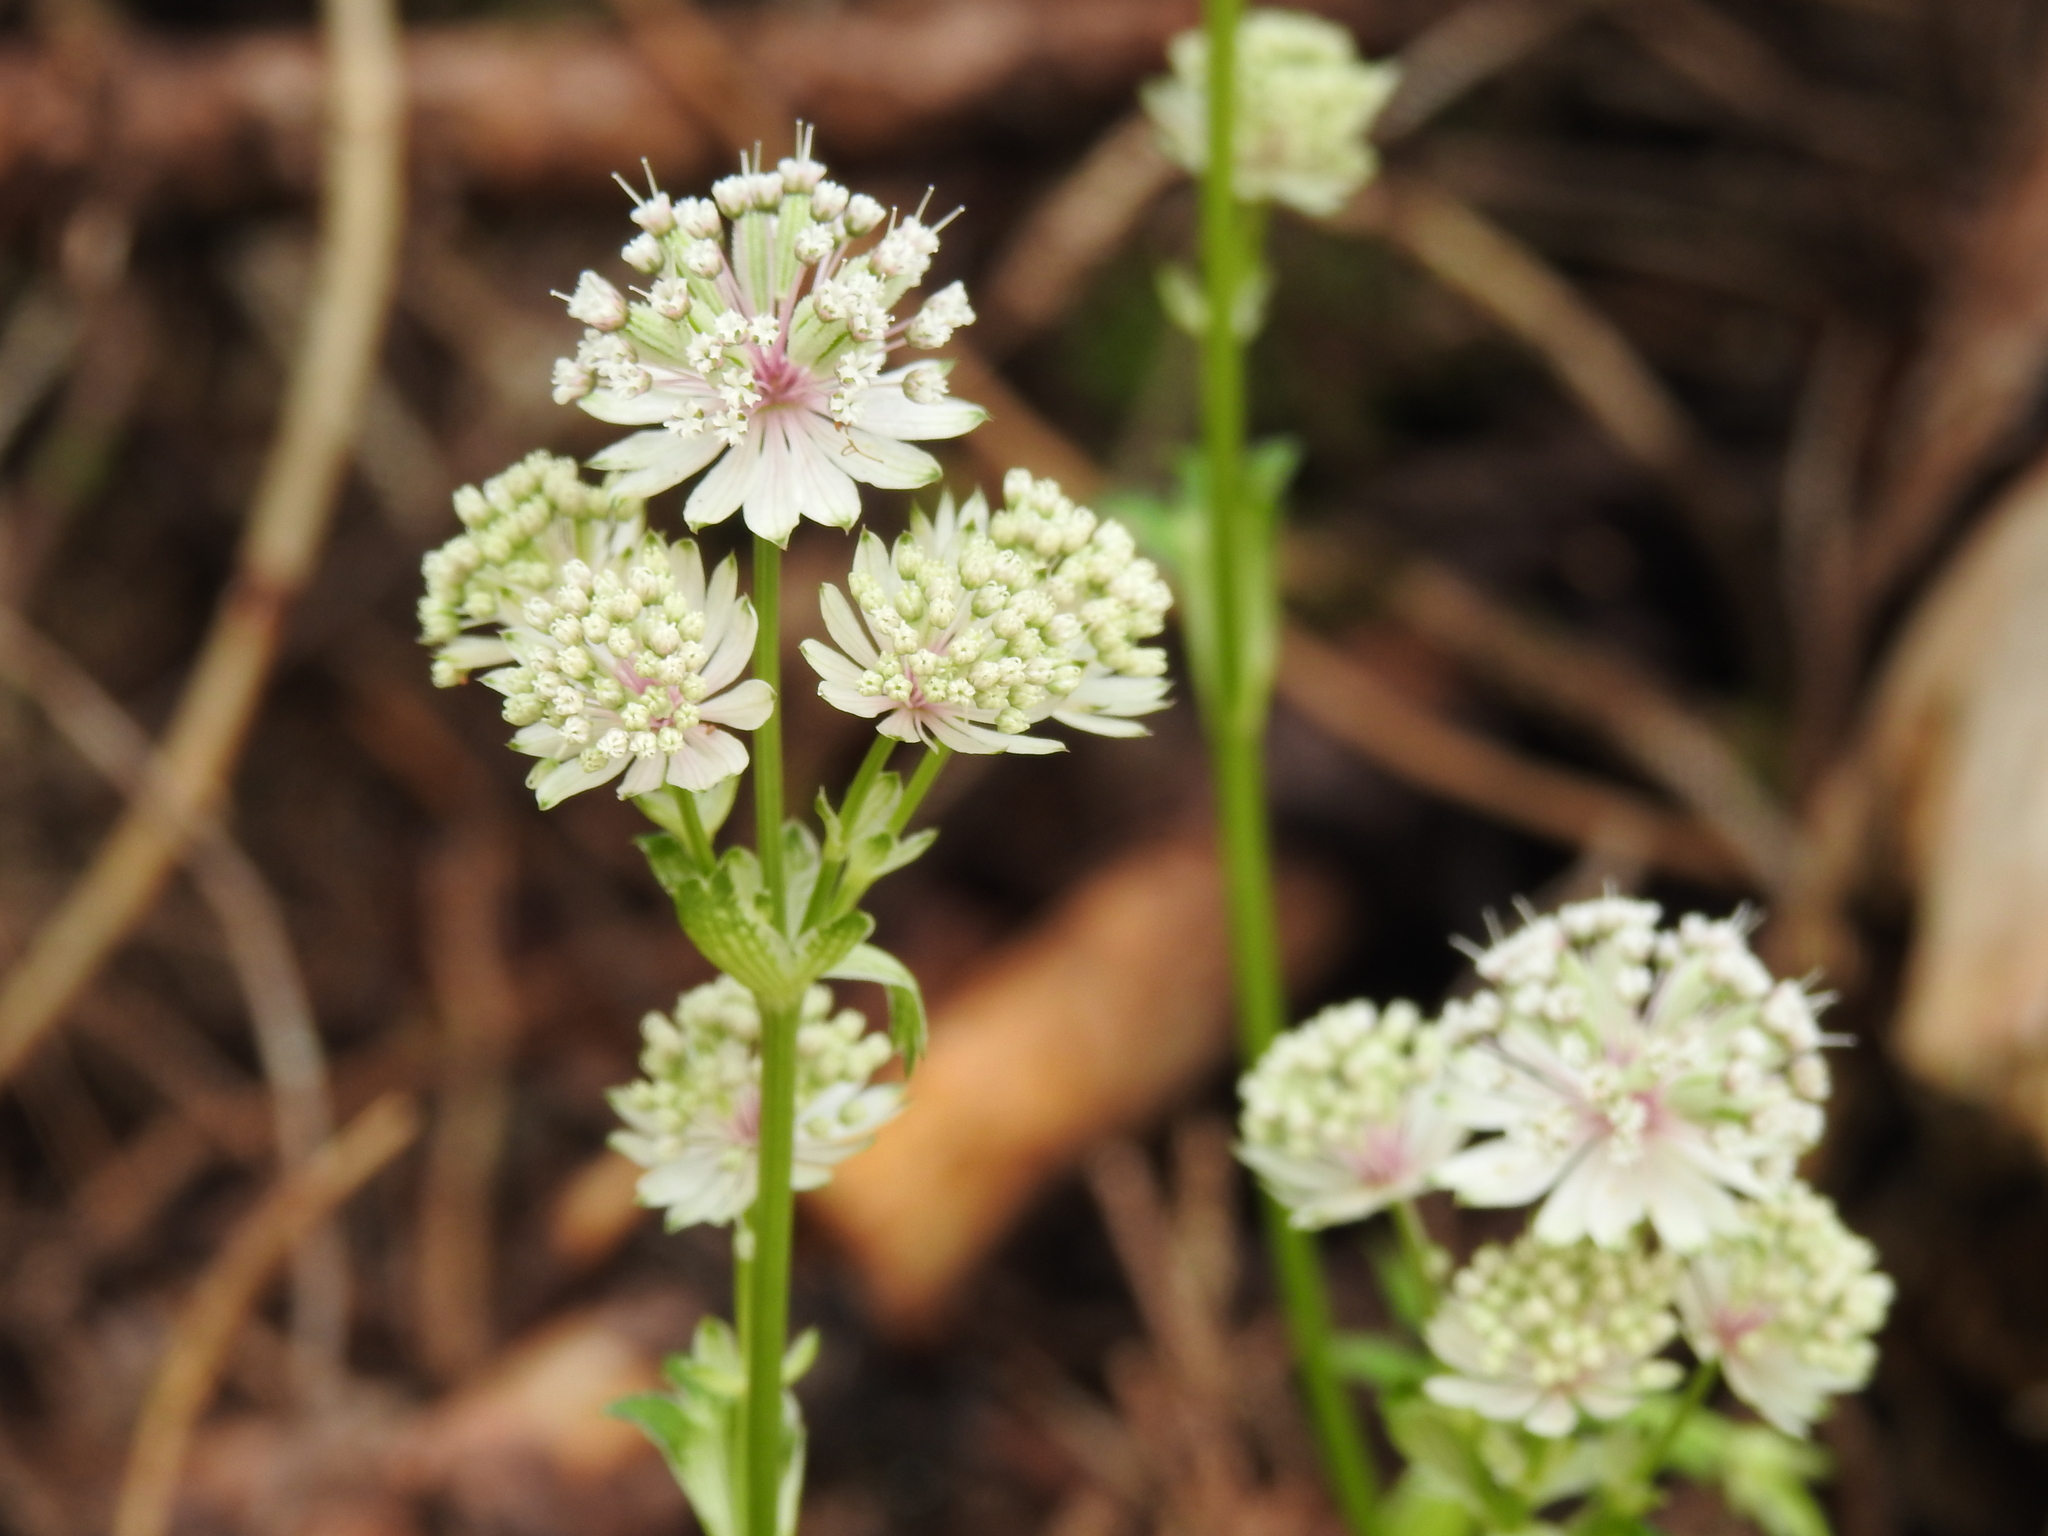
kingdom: Plantae
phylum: Tracheophyta
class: Magnoliopsida
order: Apiales
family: Apiaceae
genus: Astrantia
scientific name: Astrantia major
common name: Greater masterwort
